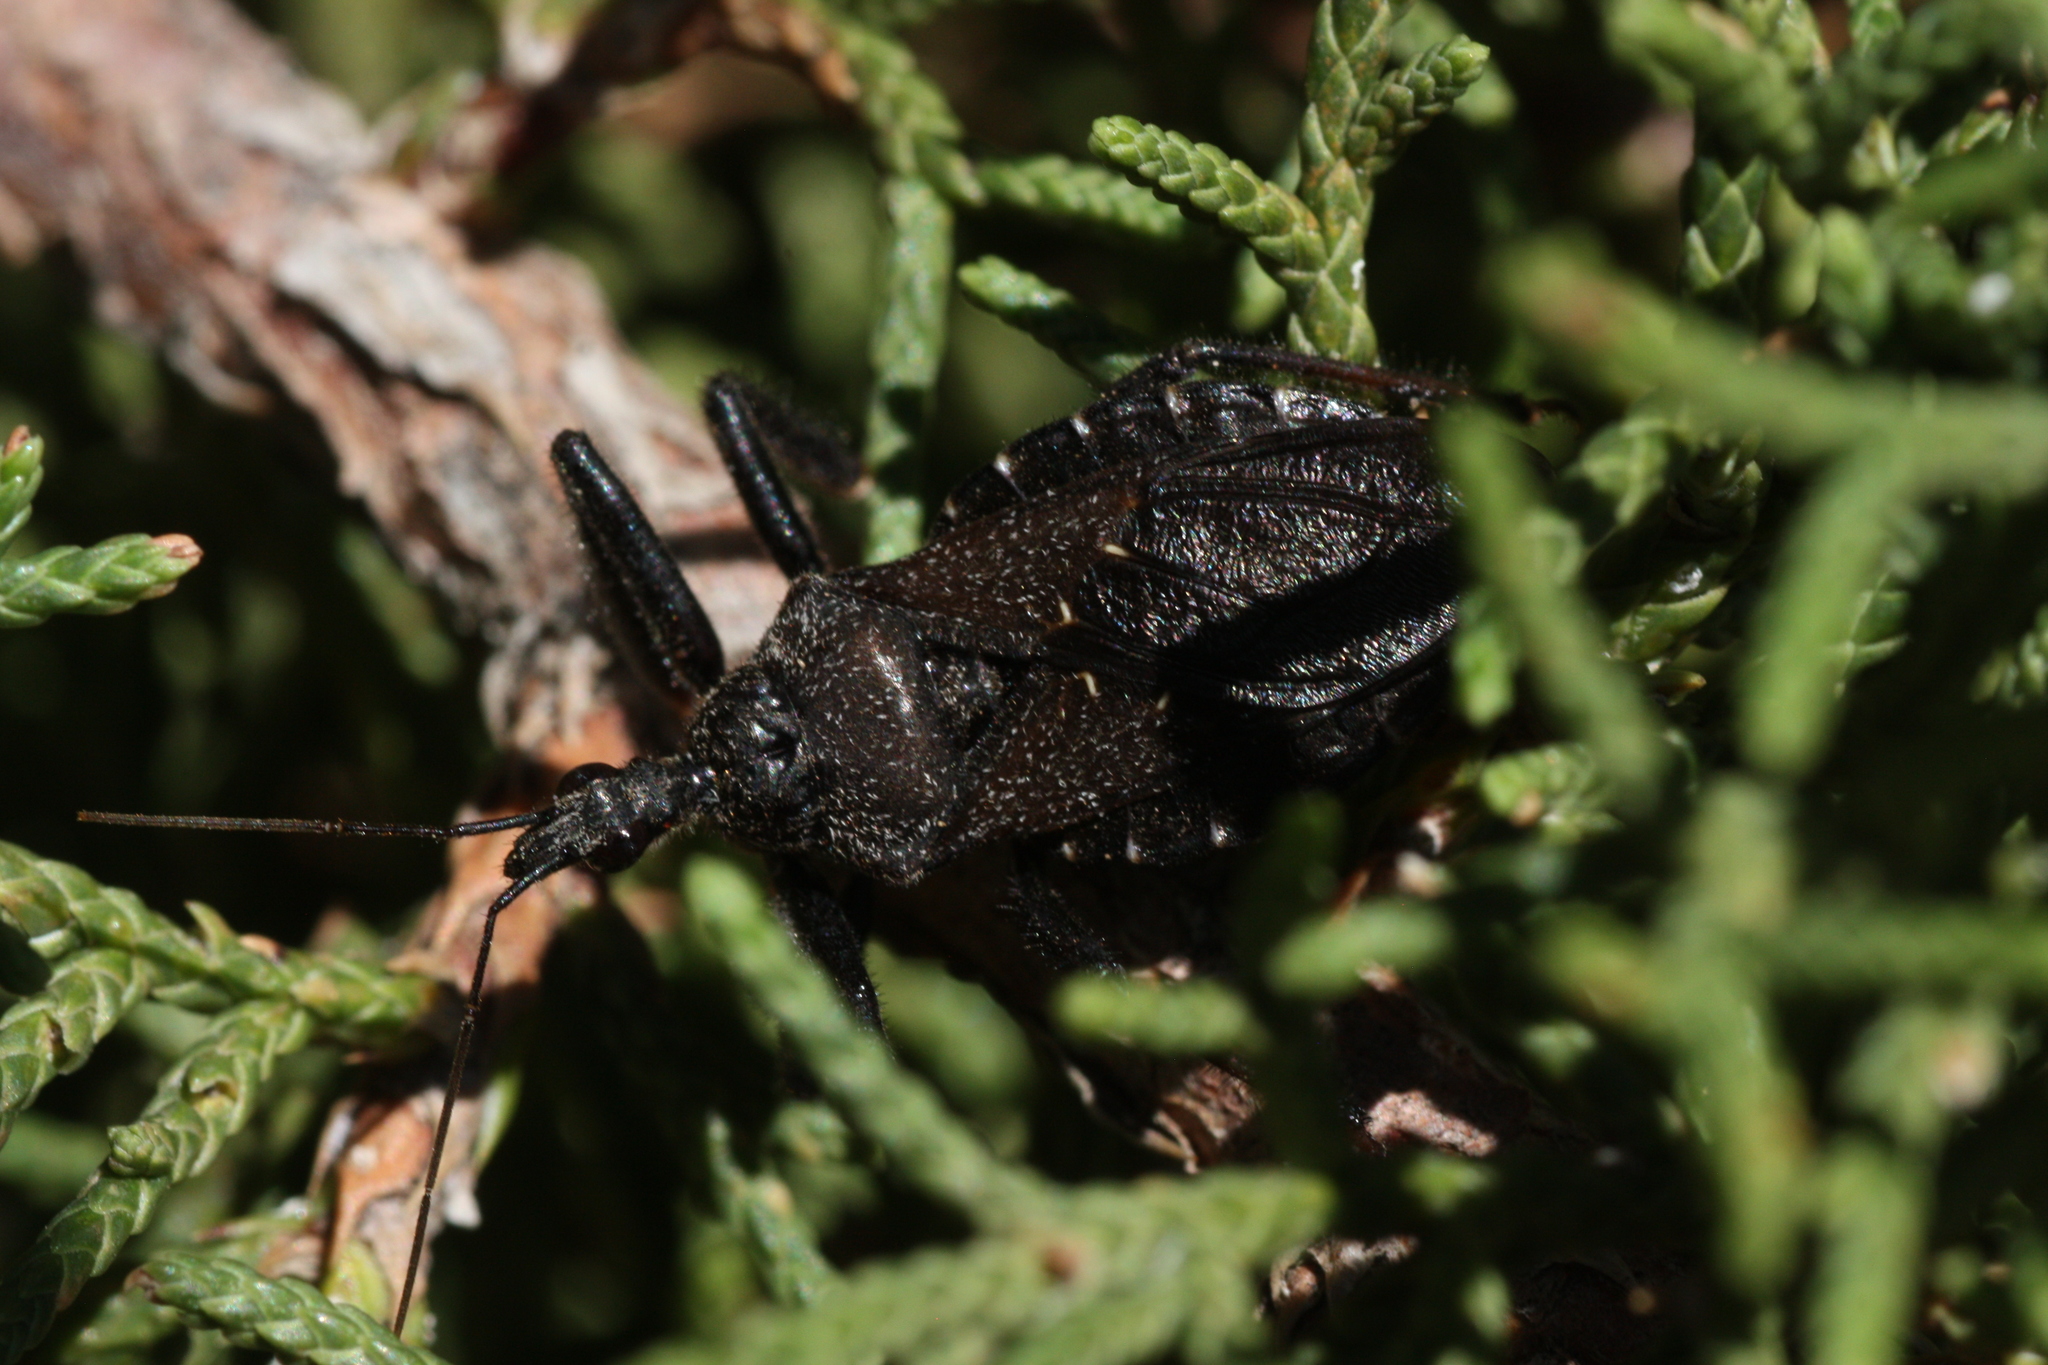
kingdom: Animalia
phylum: Arthropoda
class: Insecta
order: Hemiptera
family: Reduviidae
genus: Apiomerus
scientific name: Apiomerus longispinis
